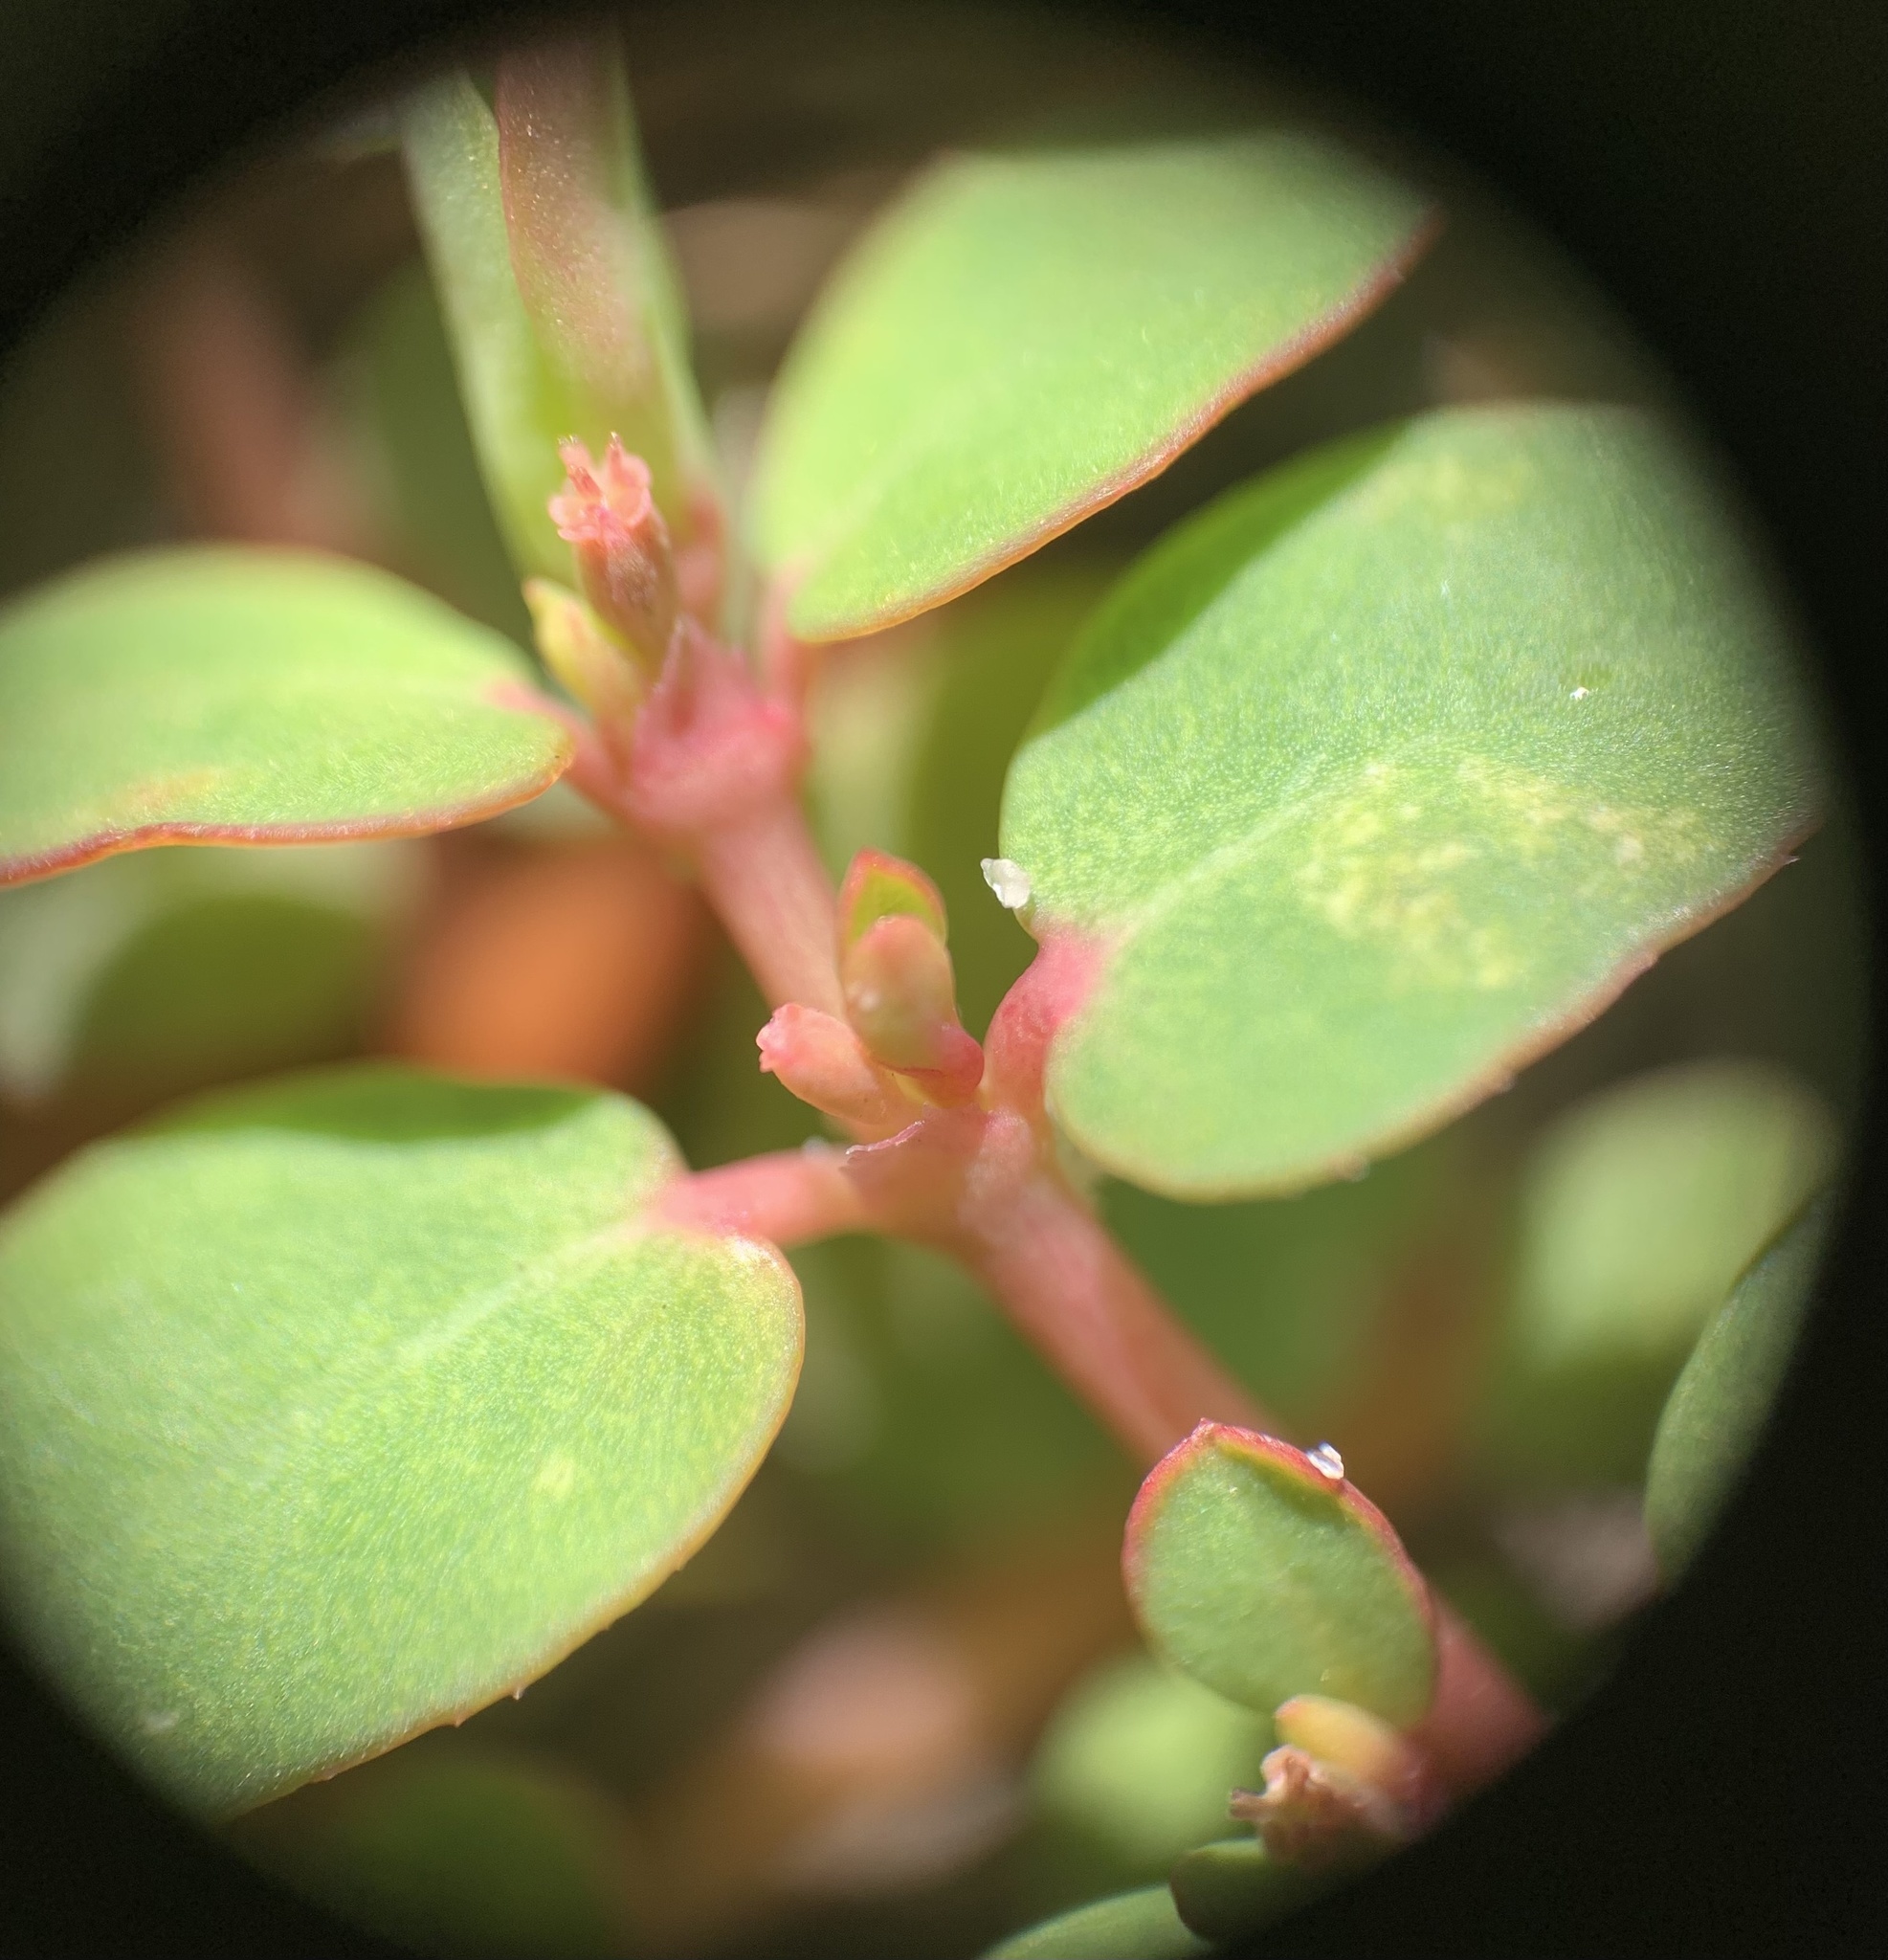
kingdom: Plantae
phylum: Tracheophyta
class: Magnoliopsida
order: Malpighiales
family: Euphorbiaceae
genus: Euphorbia
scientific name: Euphorbia blodgettii
